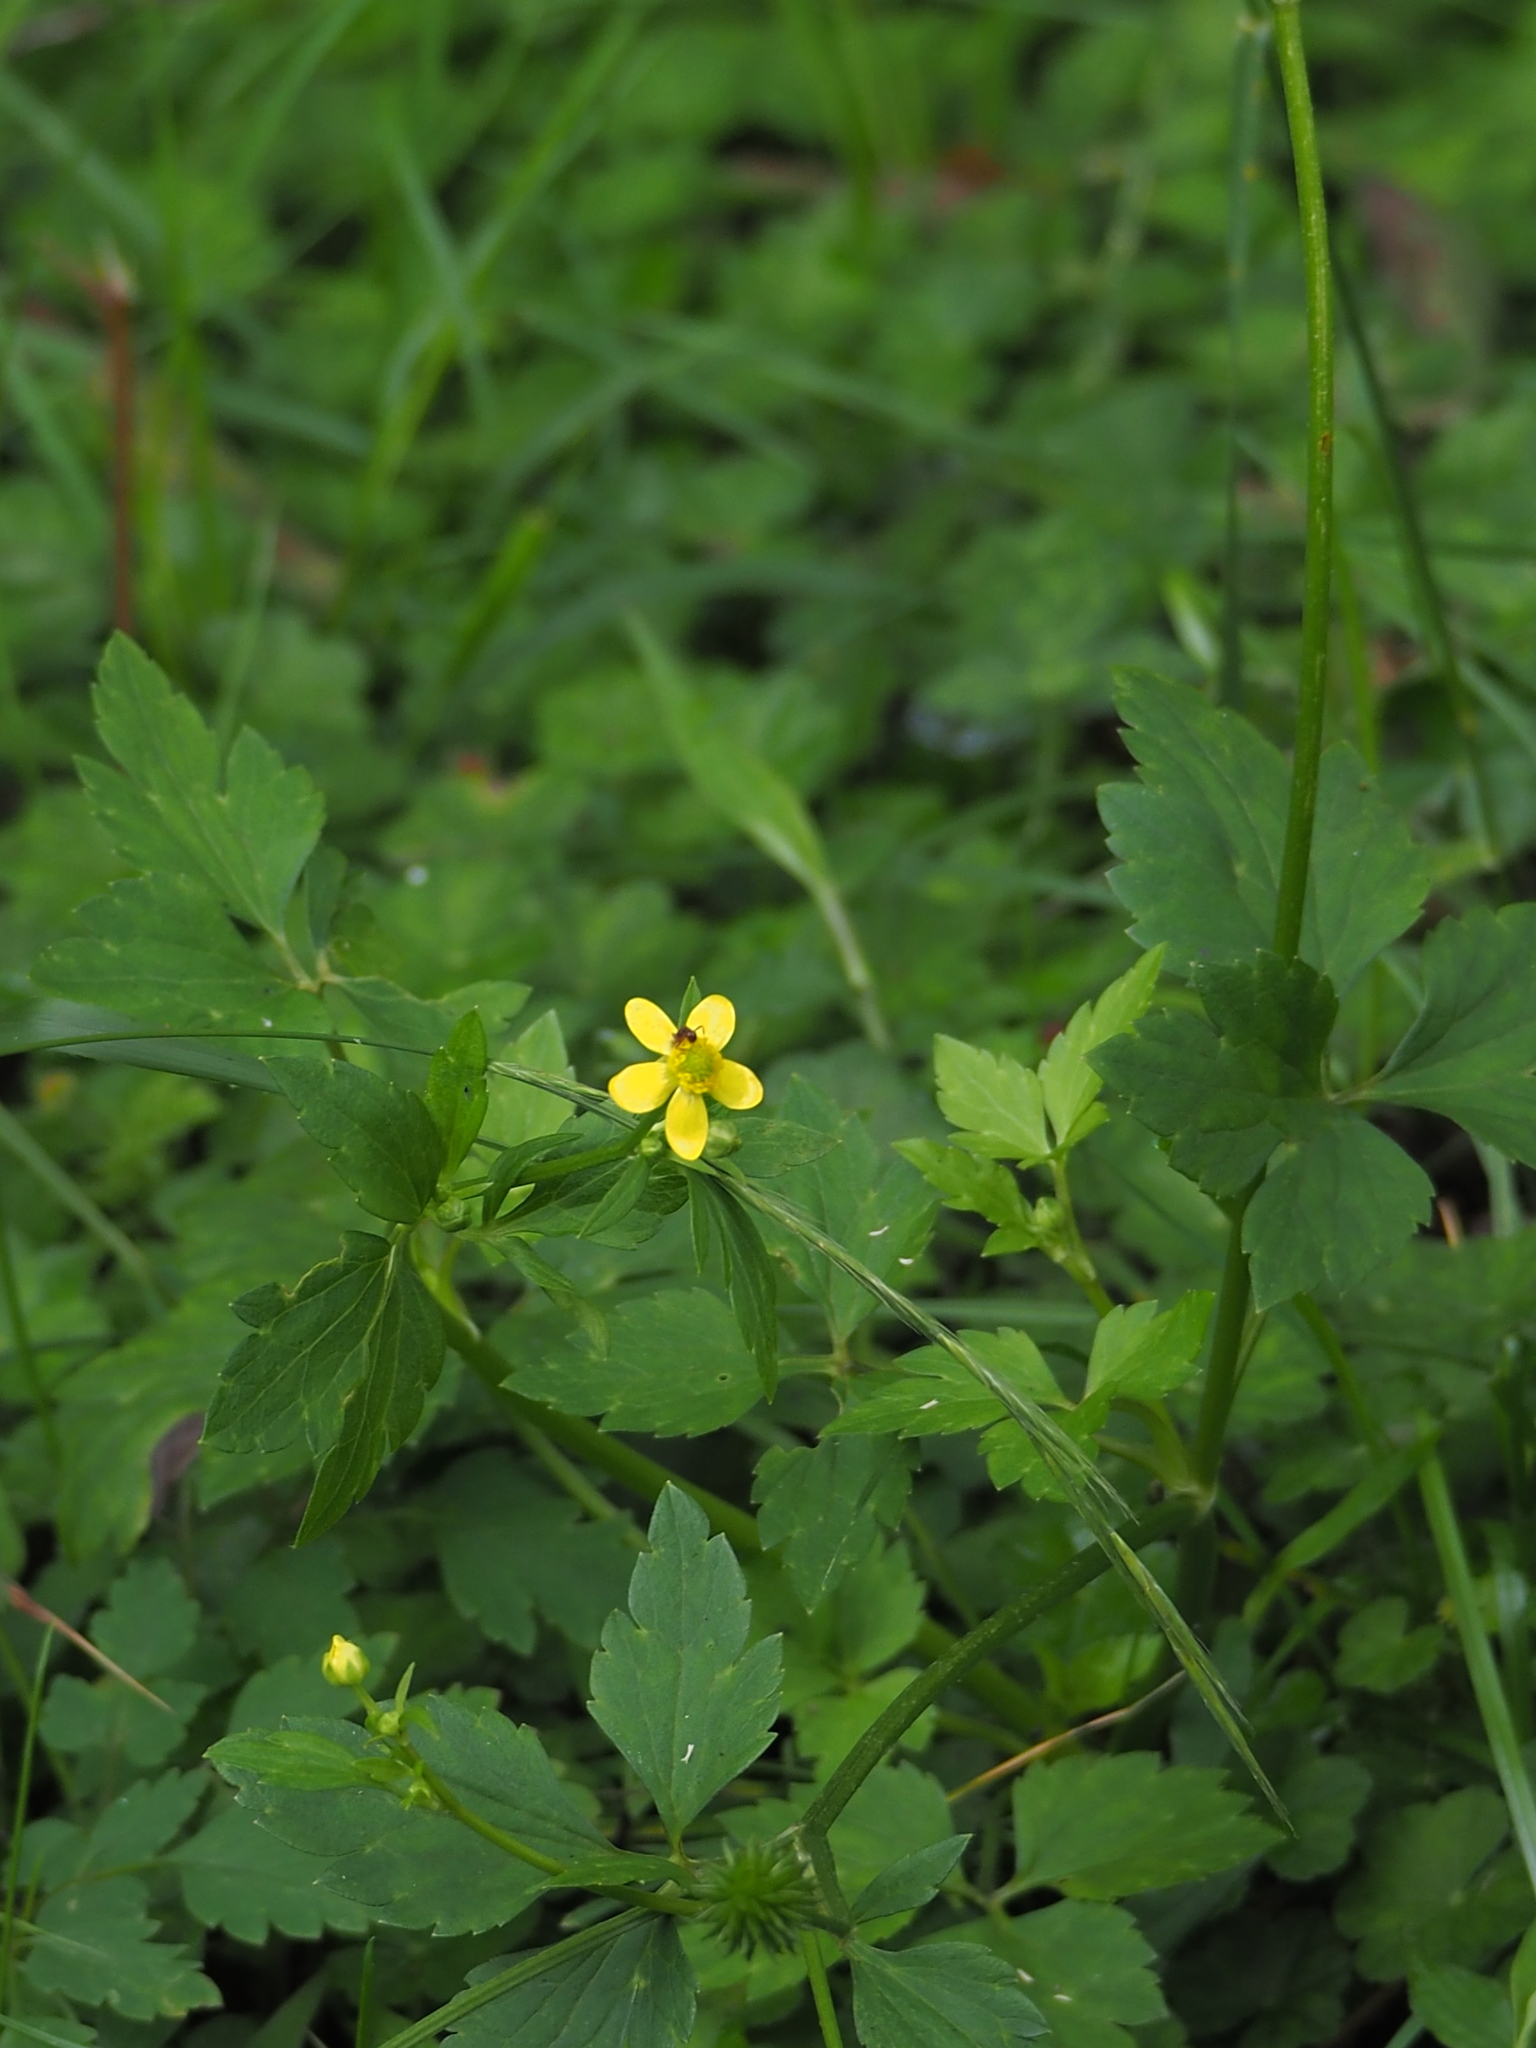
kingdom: Plantae
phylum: Tracheophyta
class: Magnoliopsida
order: Ranunculales
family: Ranunculaceae
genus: Ranunculus
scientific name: Ranunculus silerifolius
